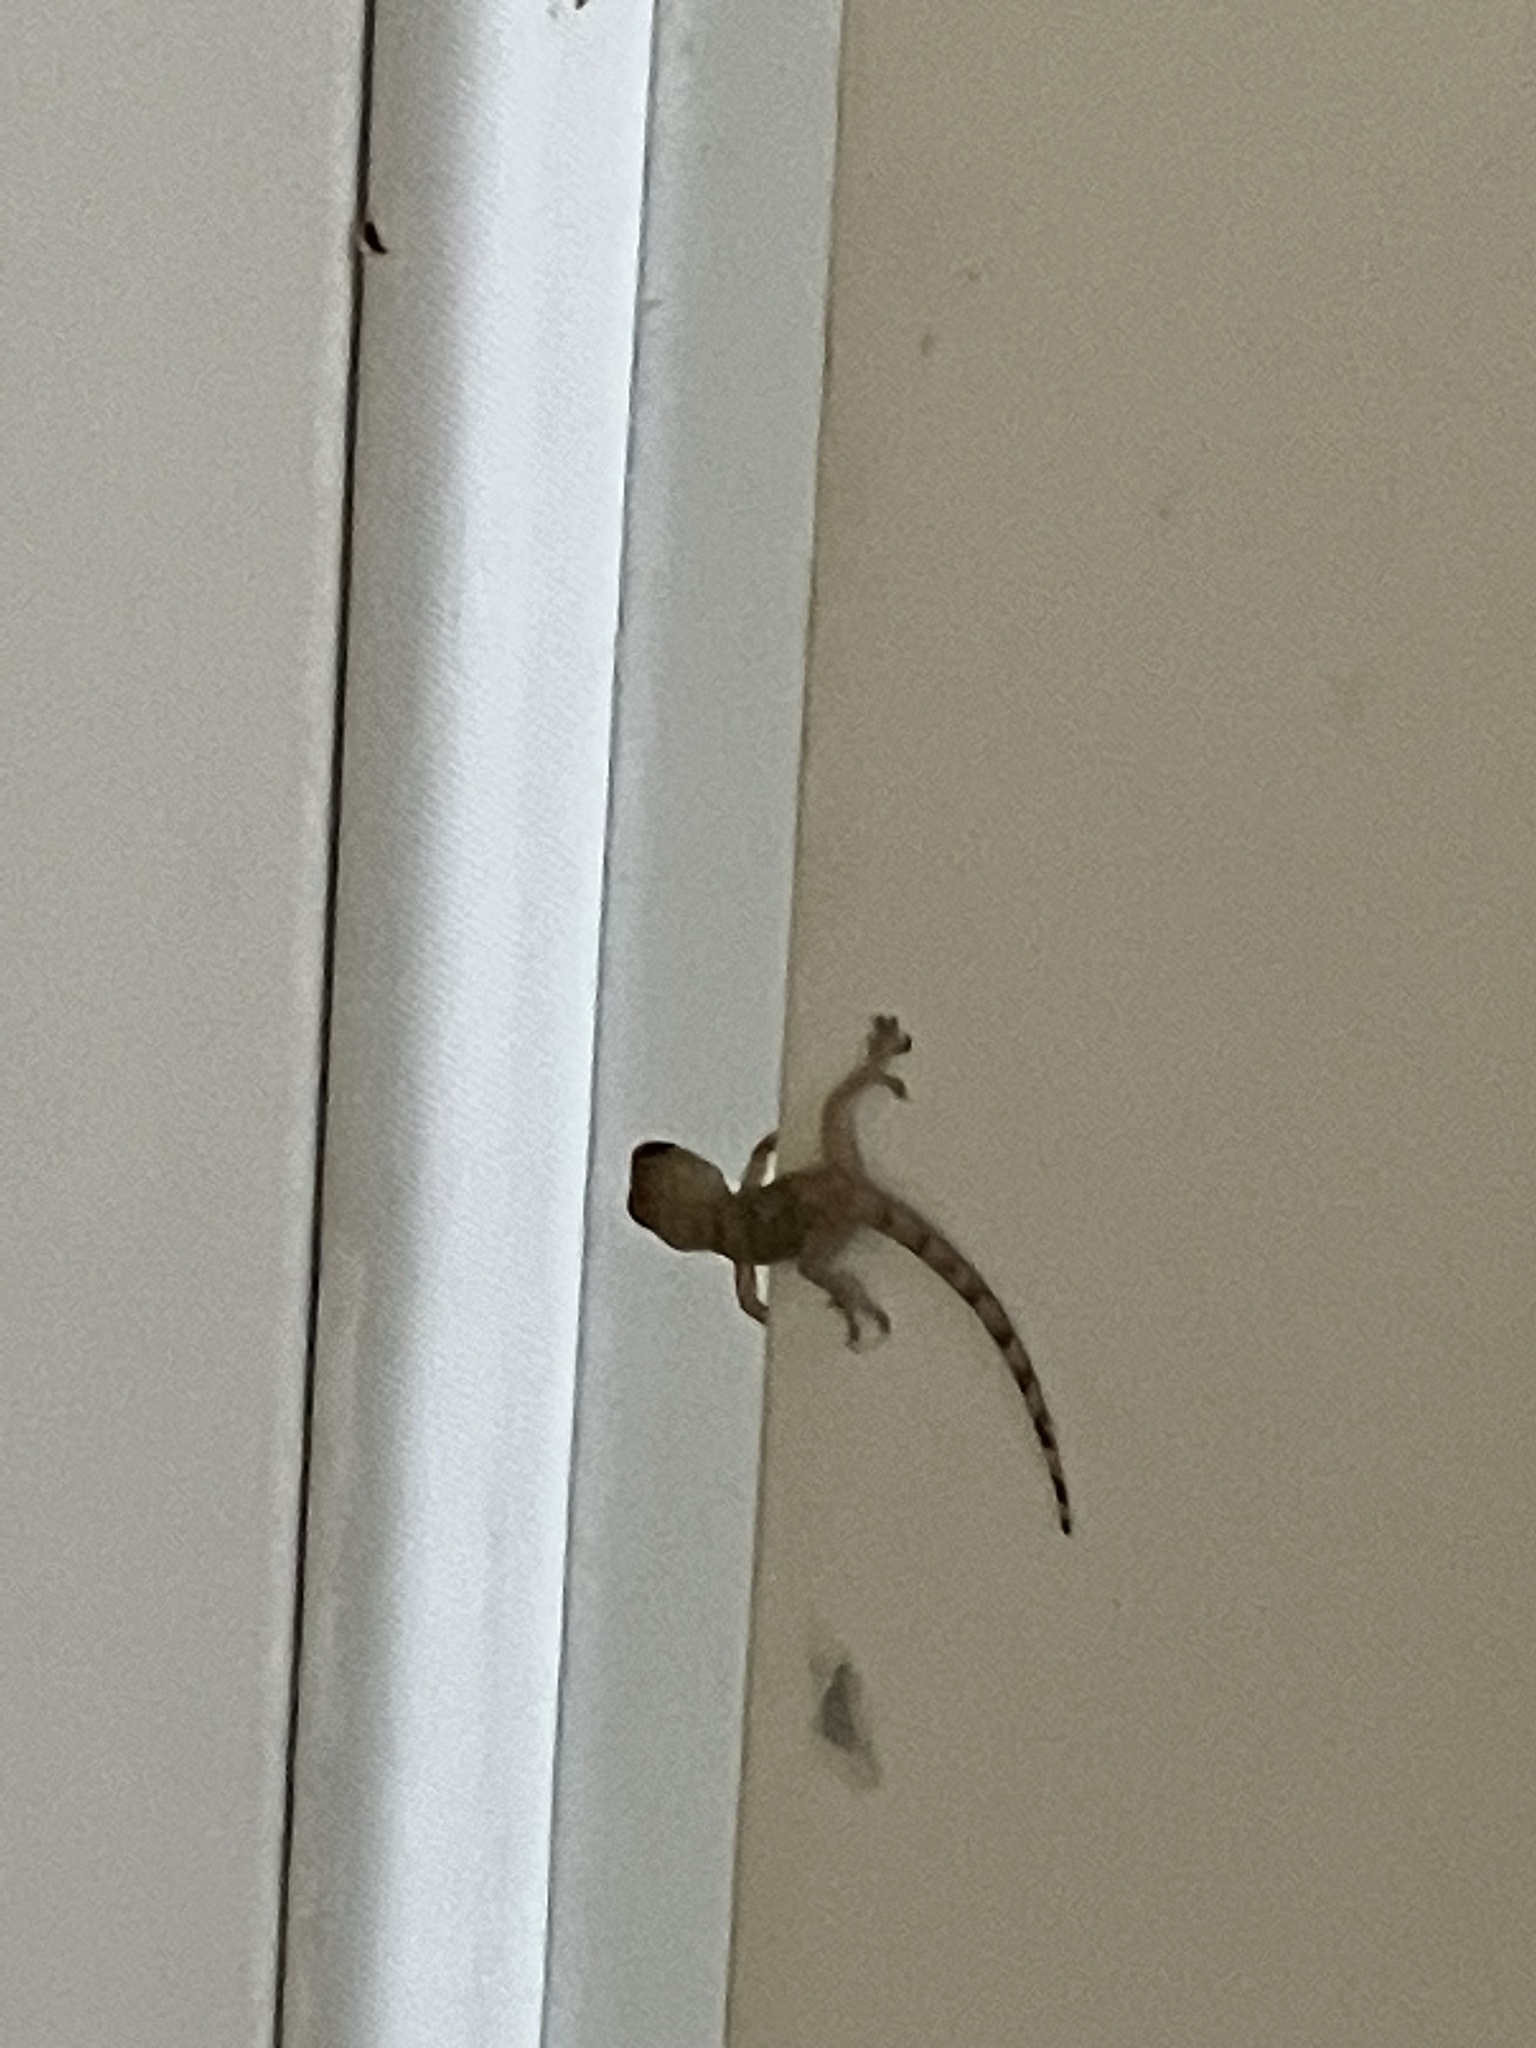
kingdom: Animalia
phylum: Chordata
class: Squamata
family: Gekkonidae
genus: Hemidactylus
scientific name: Hemidactylus mabouia
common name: House gecko
